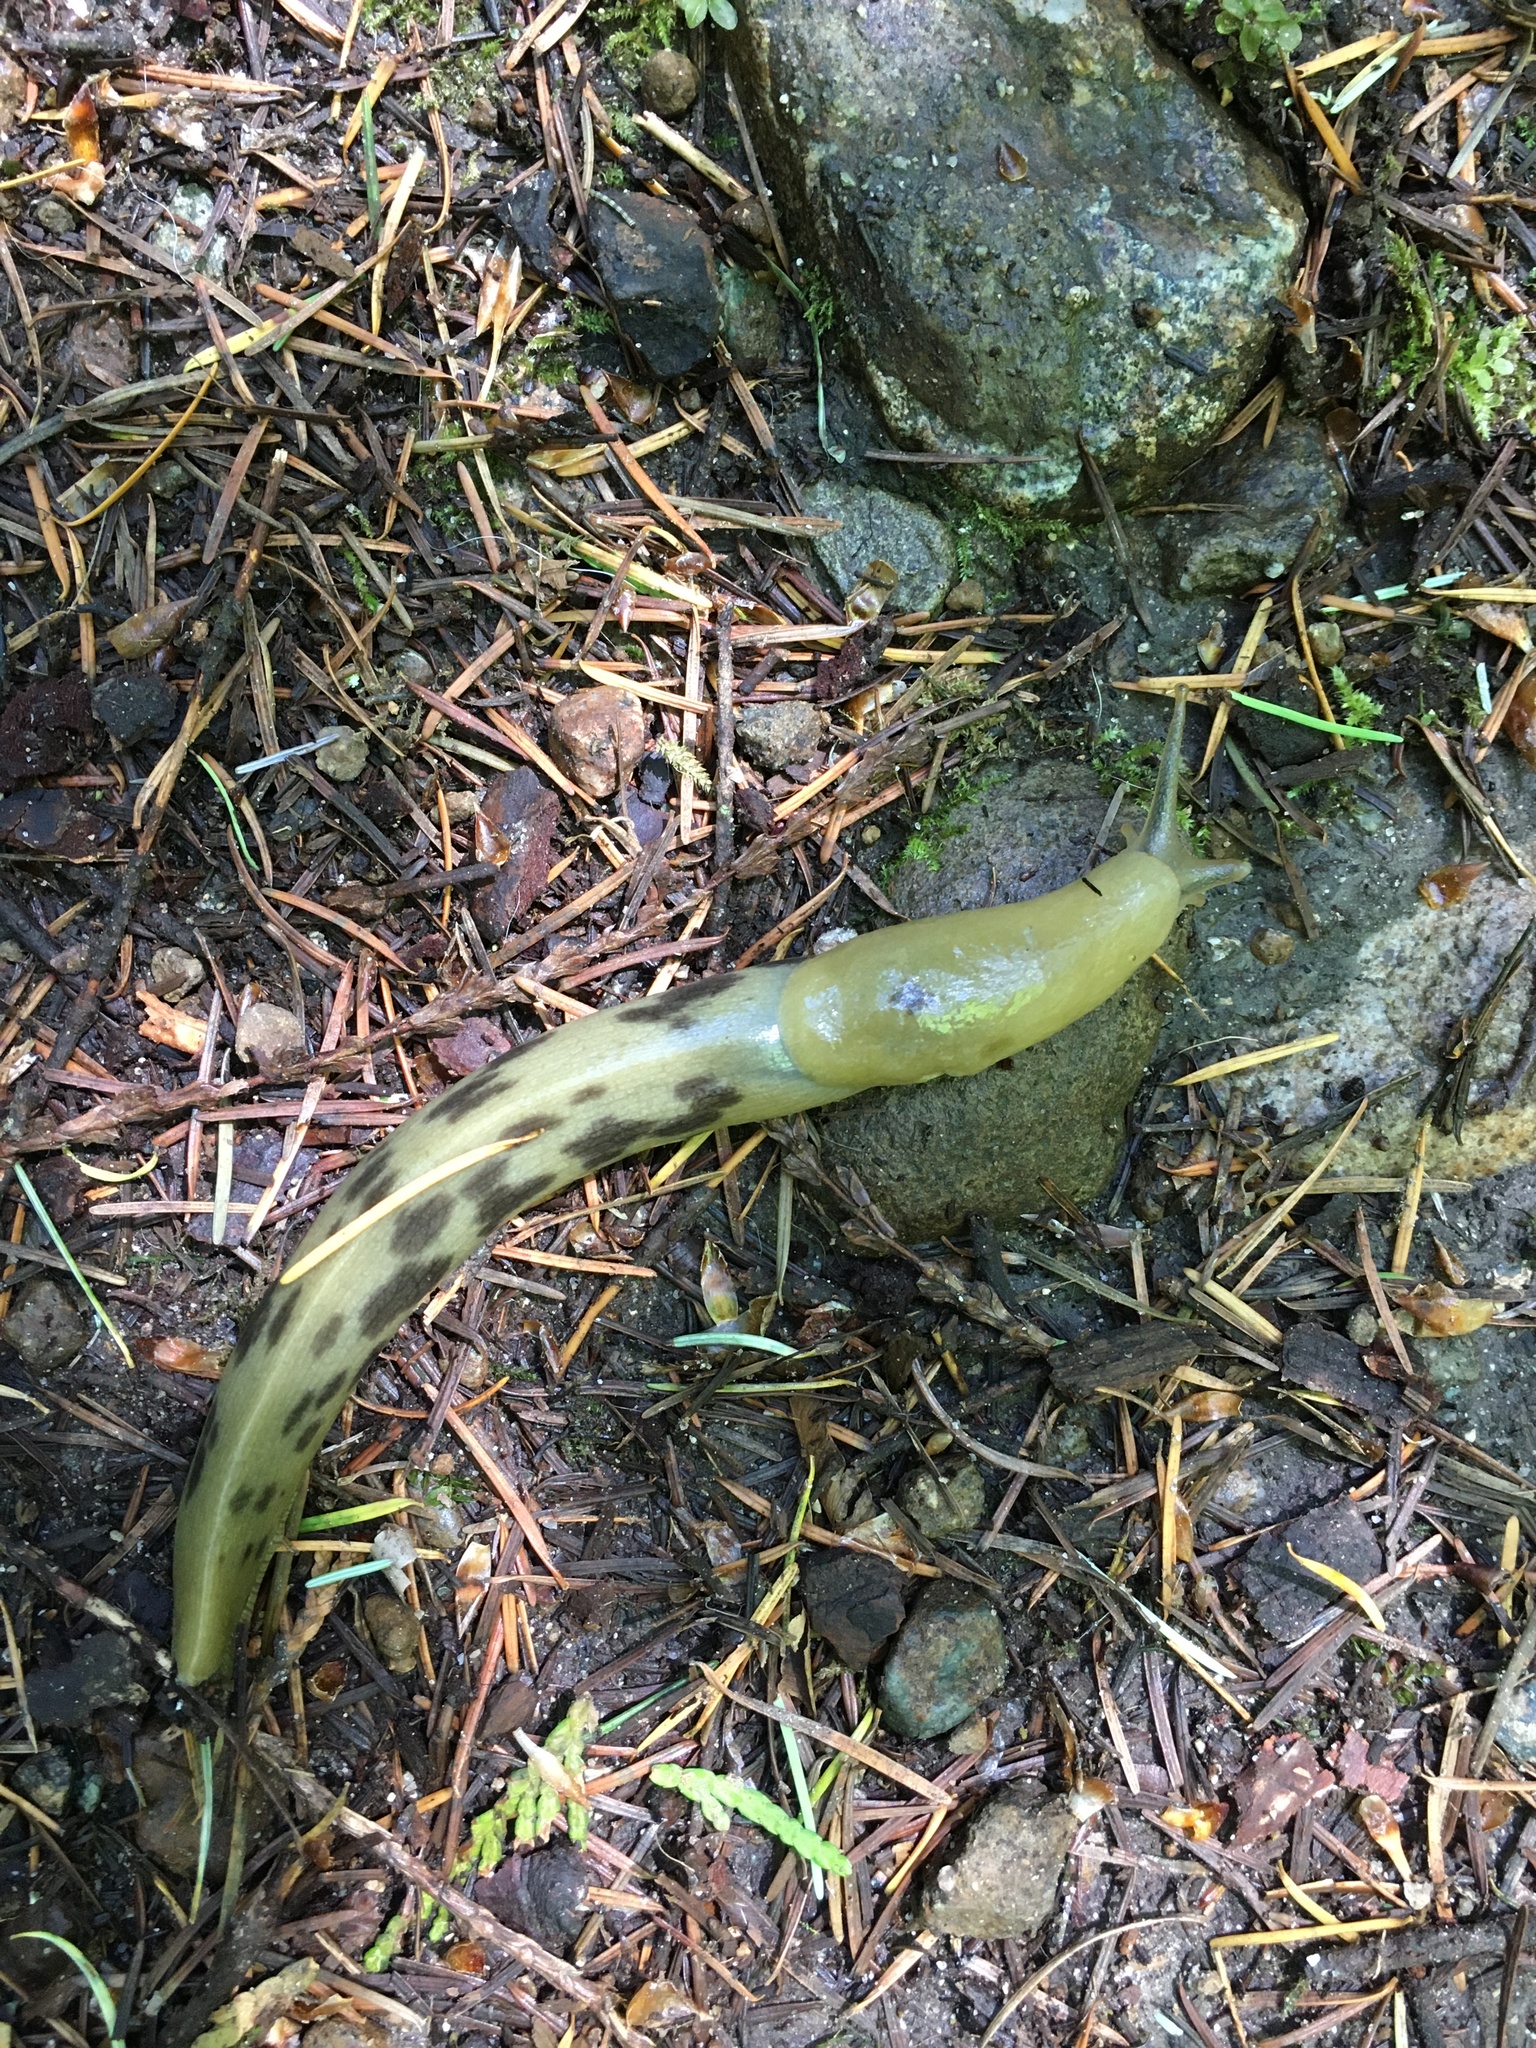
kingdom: Animalia
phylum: Mollusca
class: Gastropoda
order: Stylommatophora
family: Ariolimacidae
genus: Ariolimax
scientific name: Ariolimax columbianus
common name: Pacific banana slug
